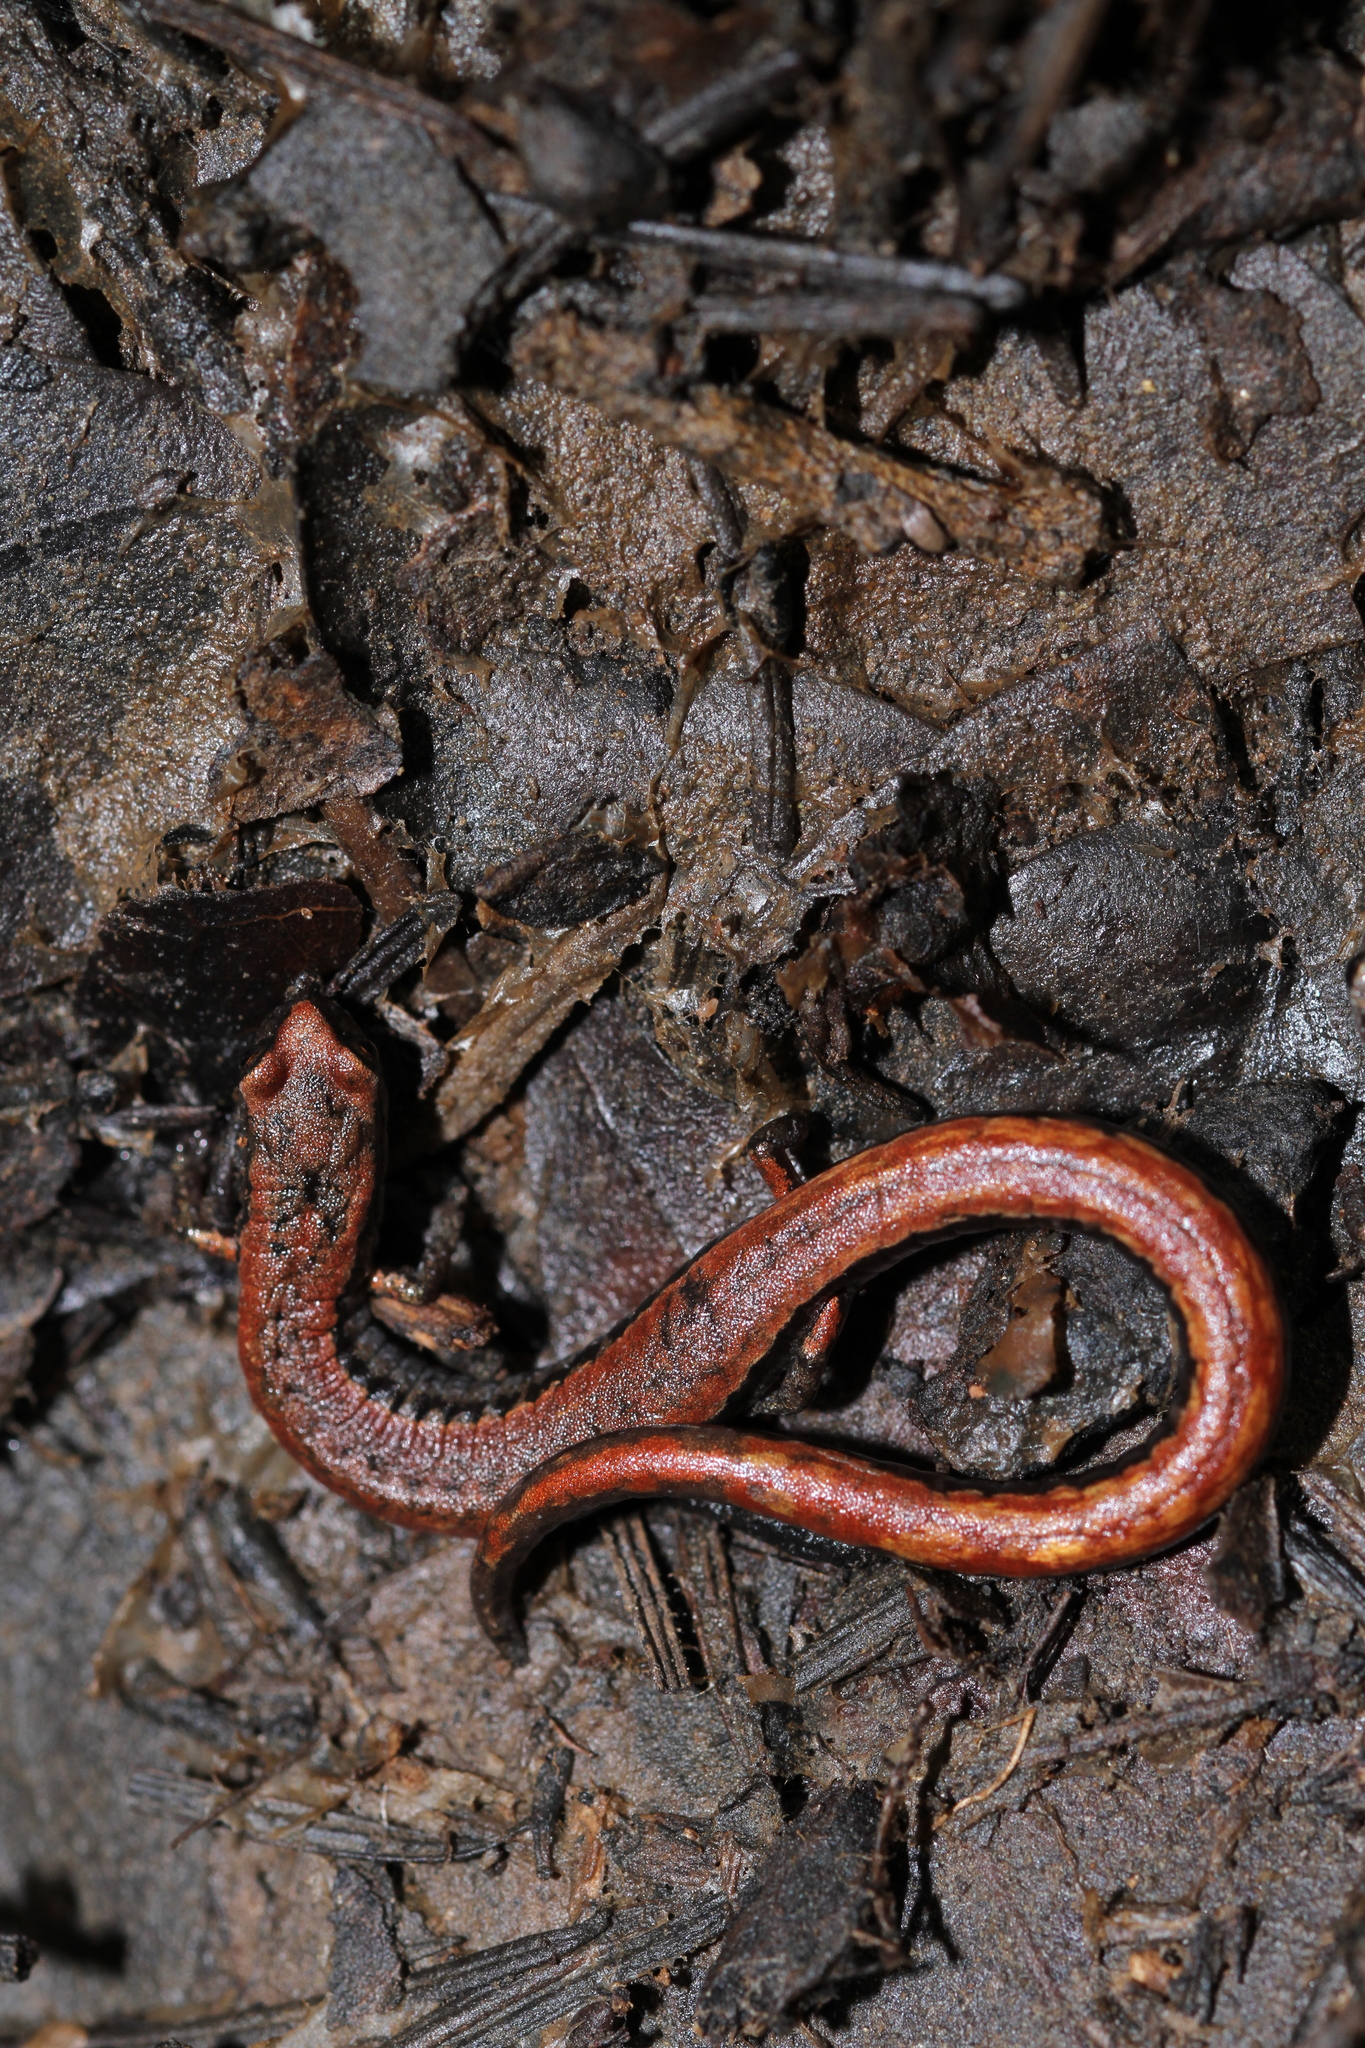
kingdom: Animalia
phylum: Chordata
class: Amphibia
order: Caudata
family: Plethodontidae
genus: Batrachoseps
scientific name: Batrachoseps attenuatus
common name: California slender salamander
